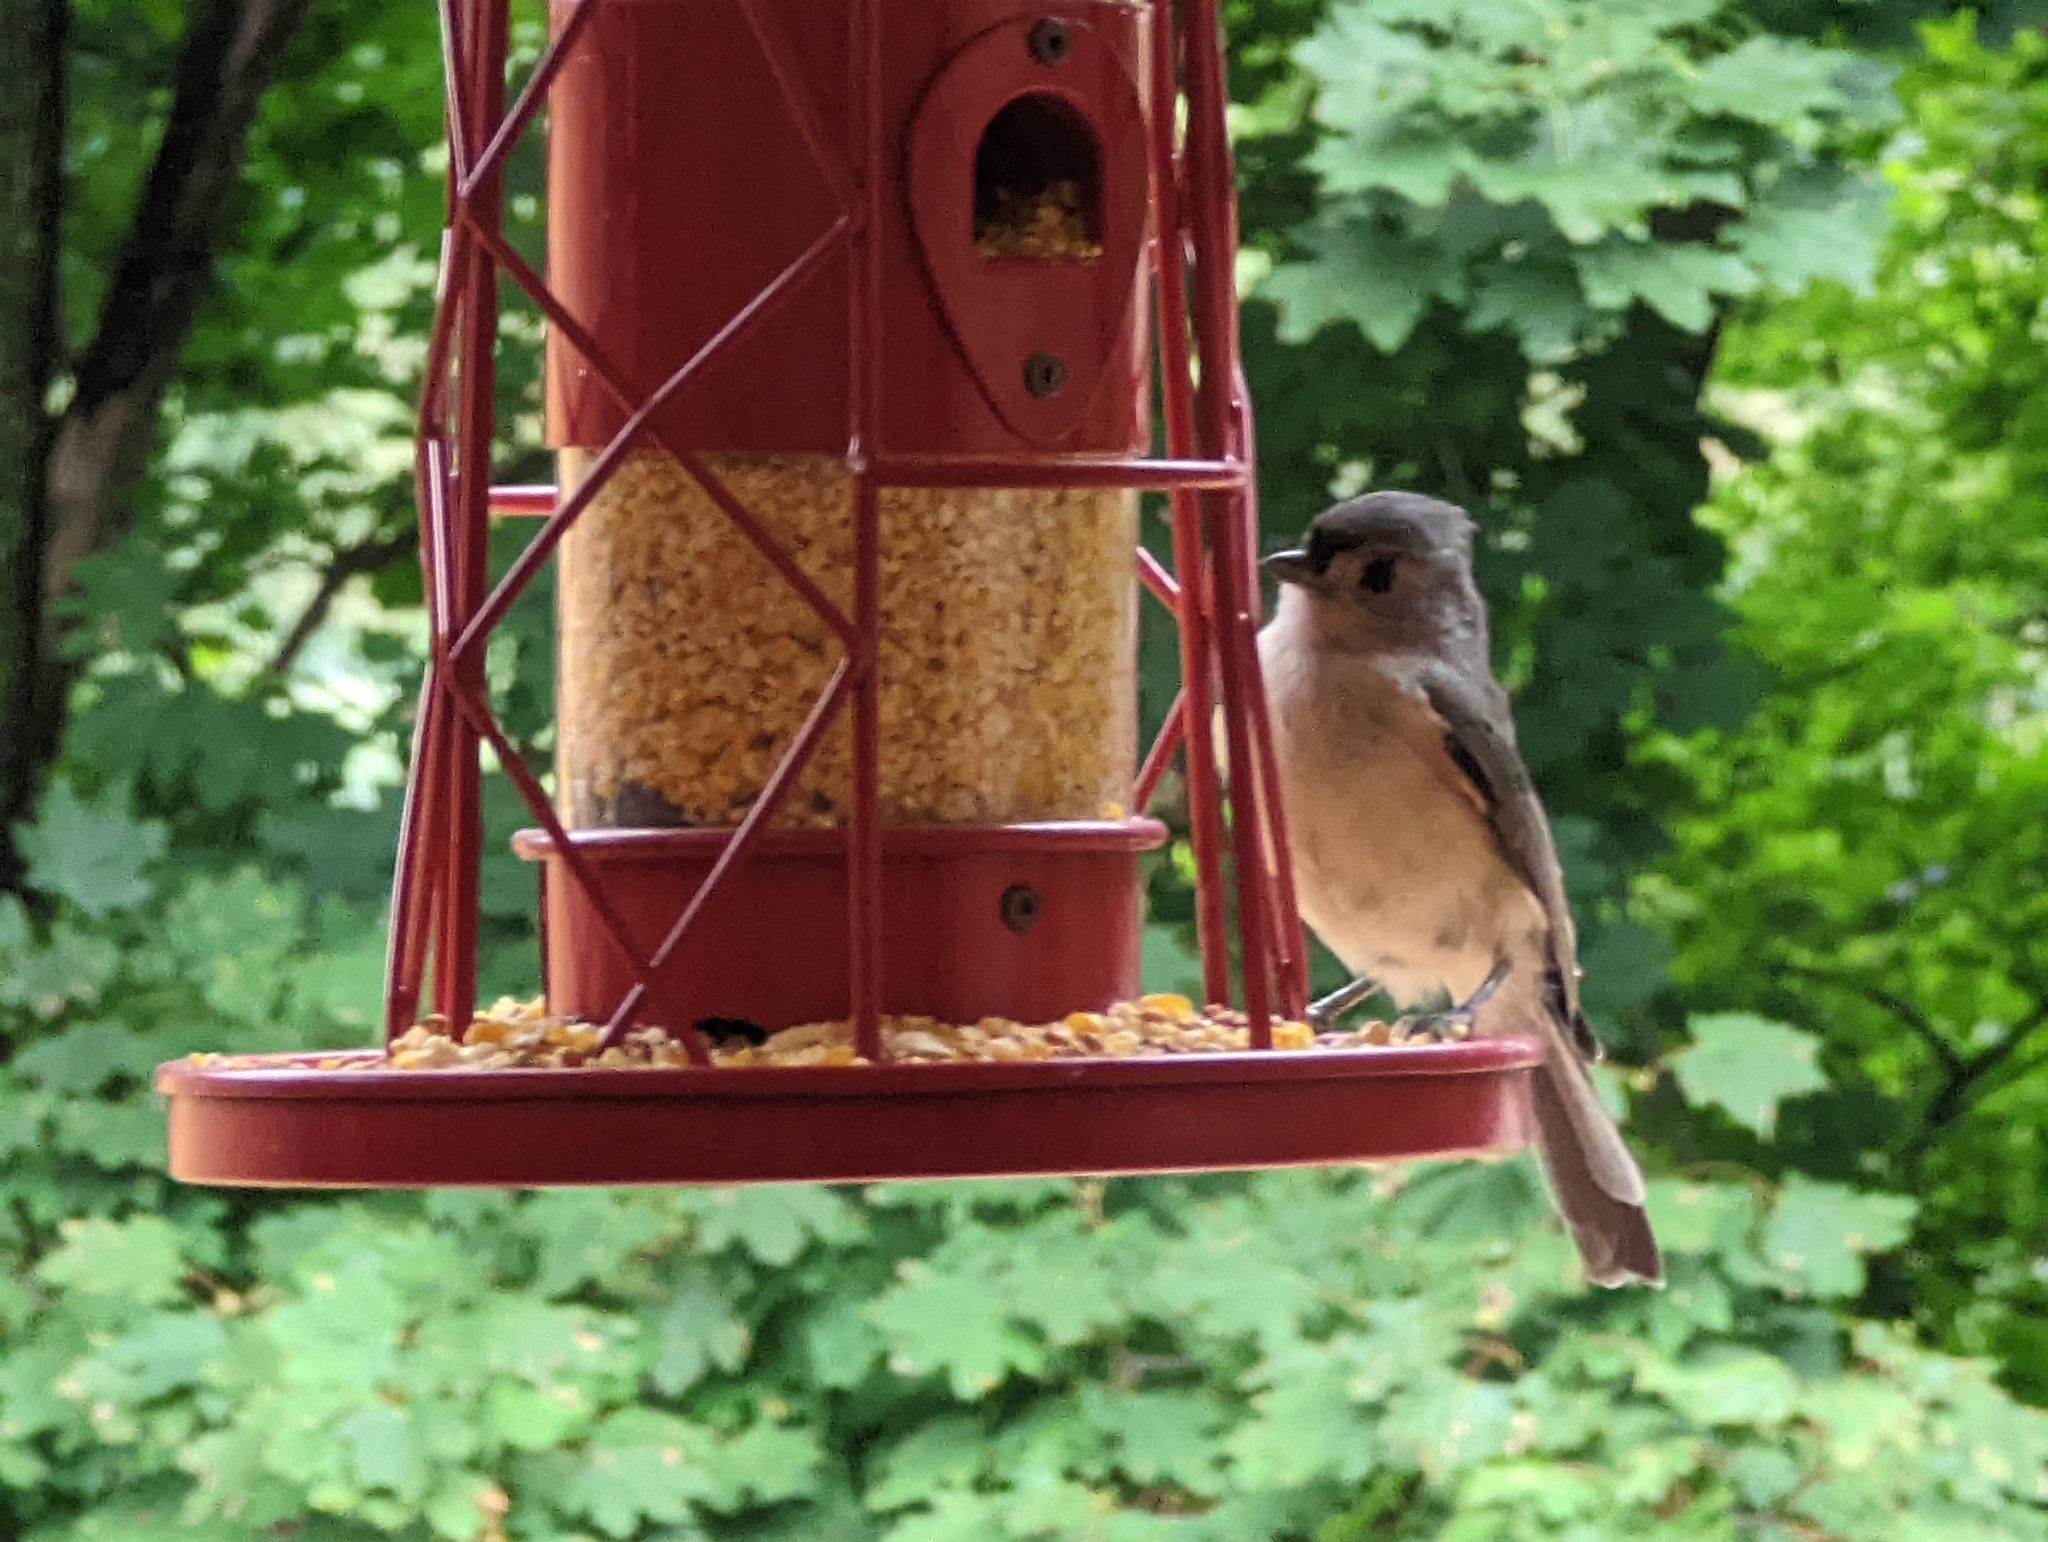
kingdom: Animalia
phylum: Chordata
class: Aves
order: Passeriformes
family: Paridae
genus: Baeolophus
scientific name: Baeolophus bicolor
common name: Tufted titmouse
